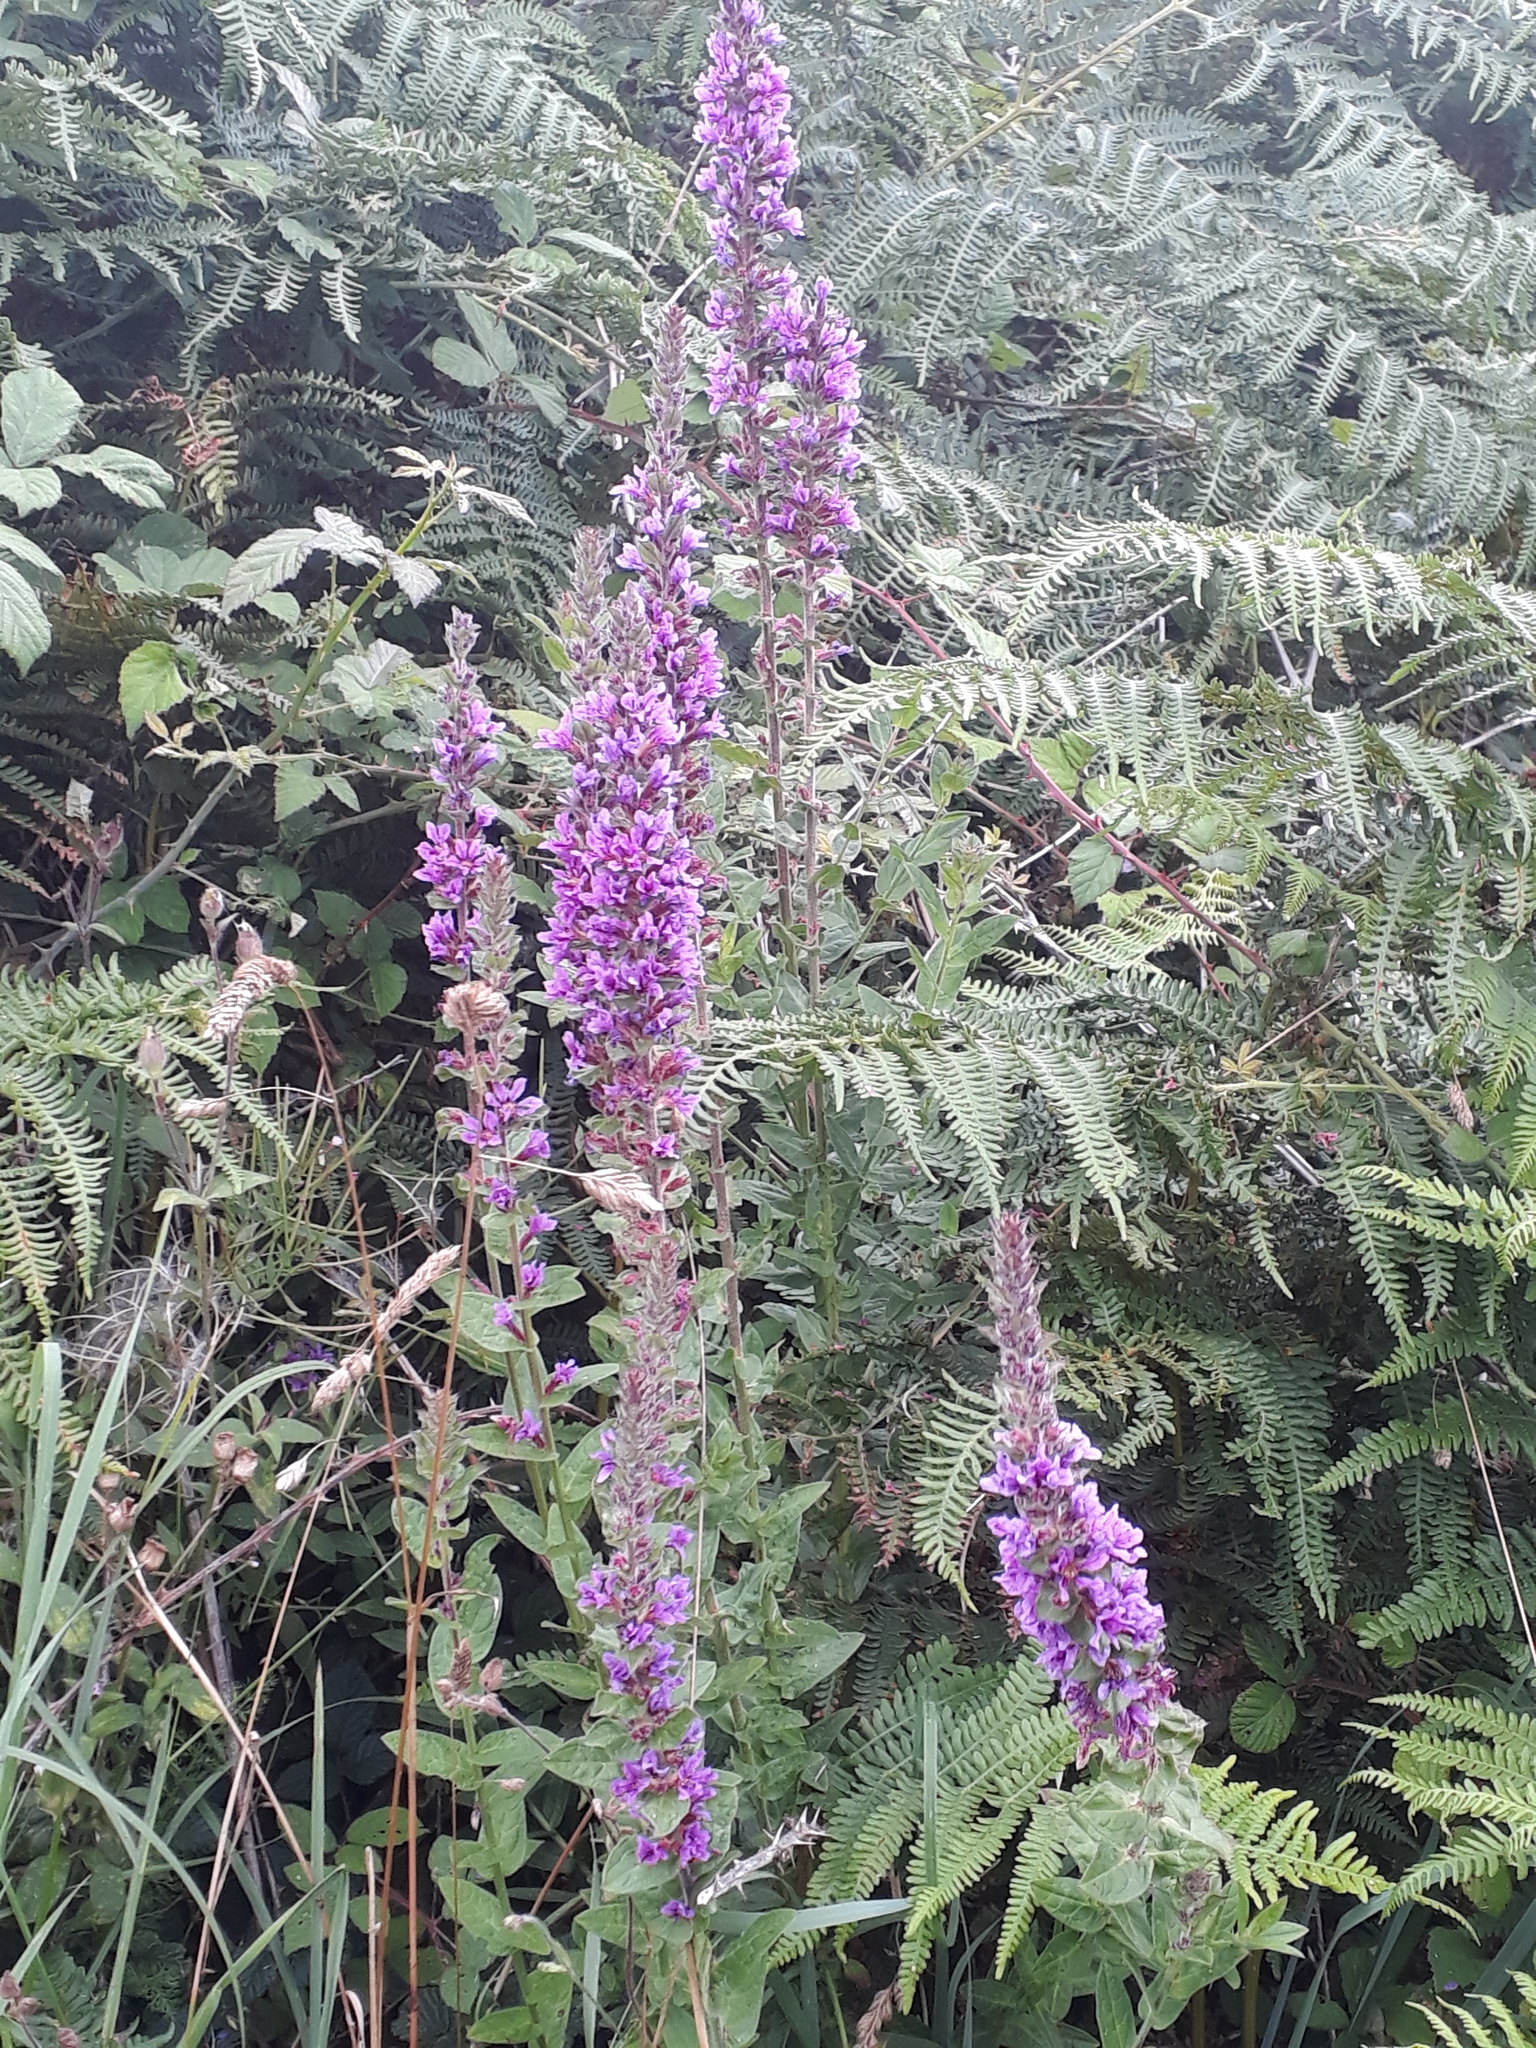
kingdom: Plantae
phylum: Tracheophyta
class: Magnoliopsida
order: Myrtales
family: Lythraceae
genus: Lythrum
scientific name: Lythrum salicaria
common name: Purple loosestrife
